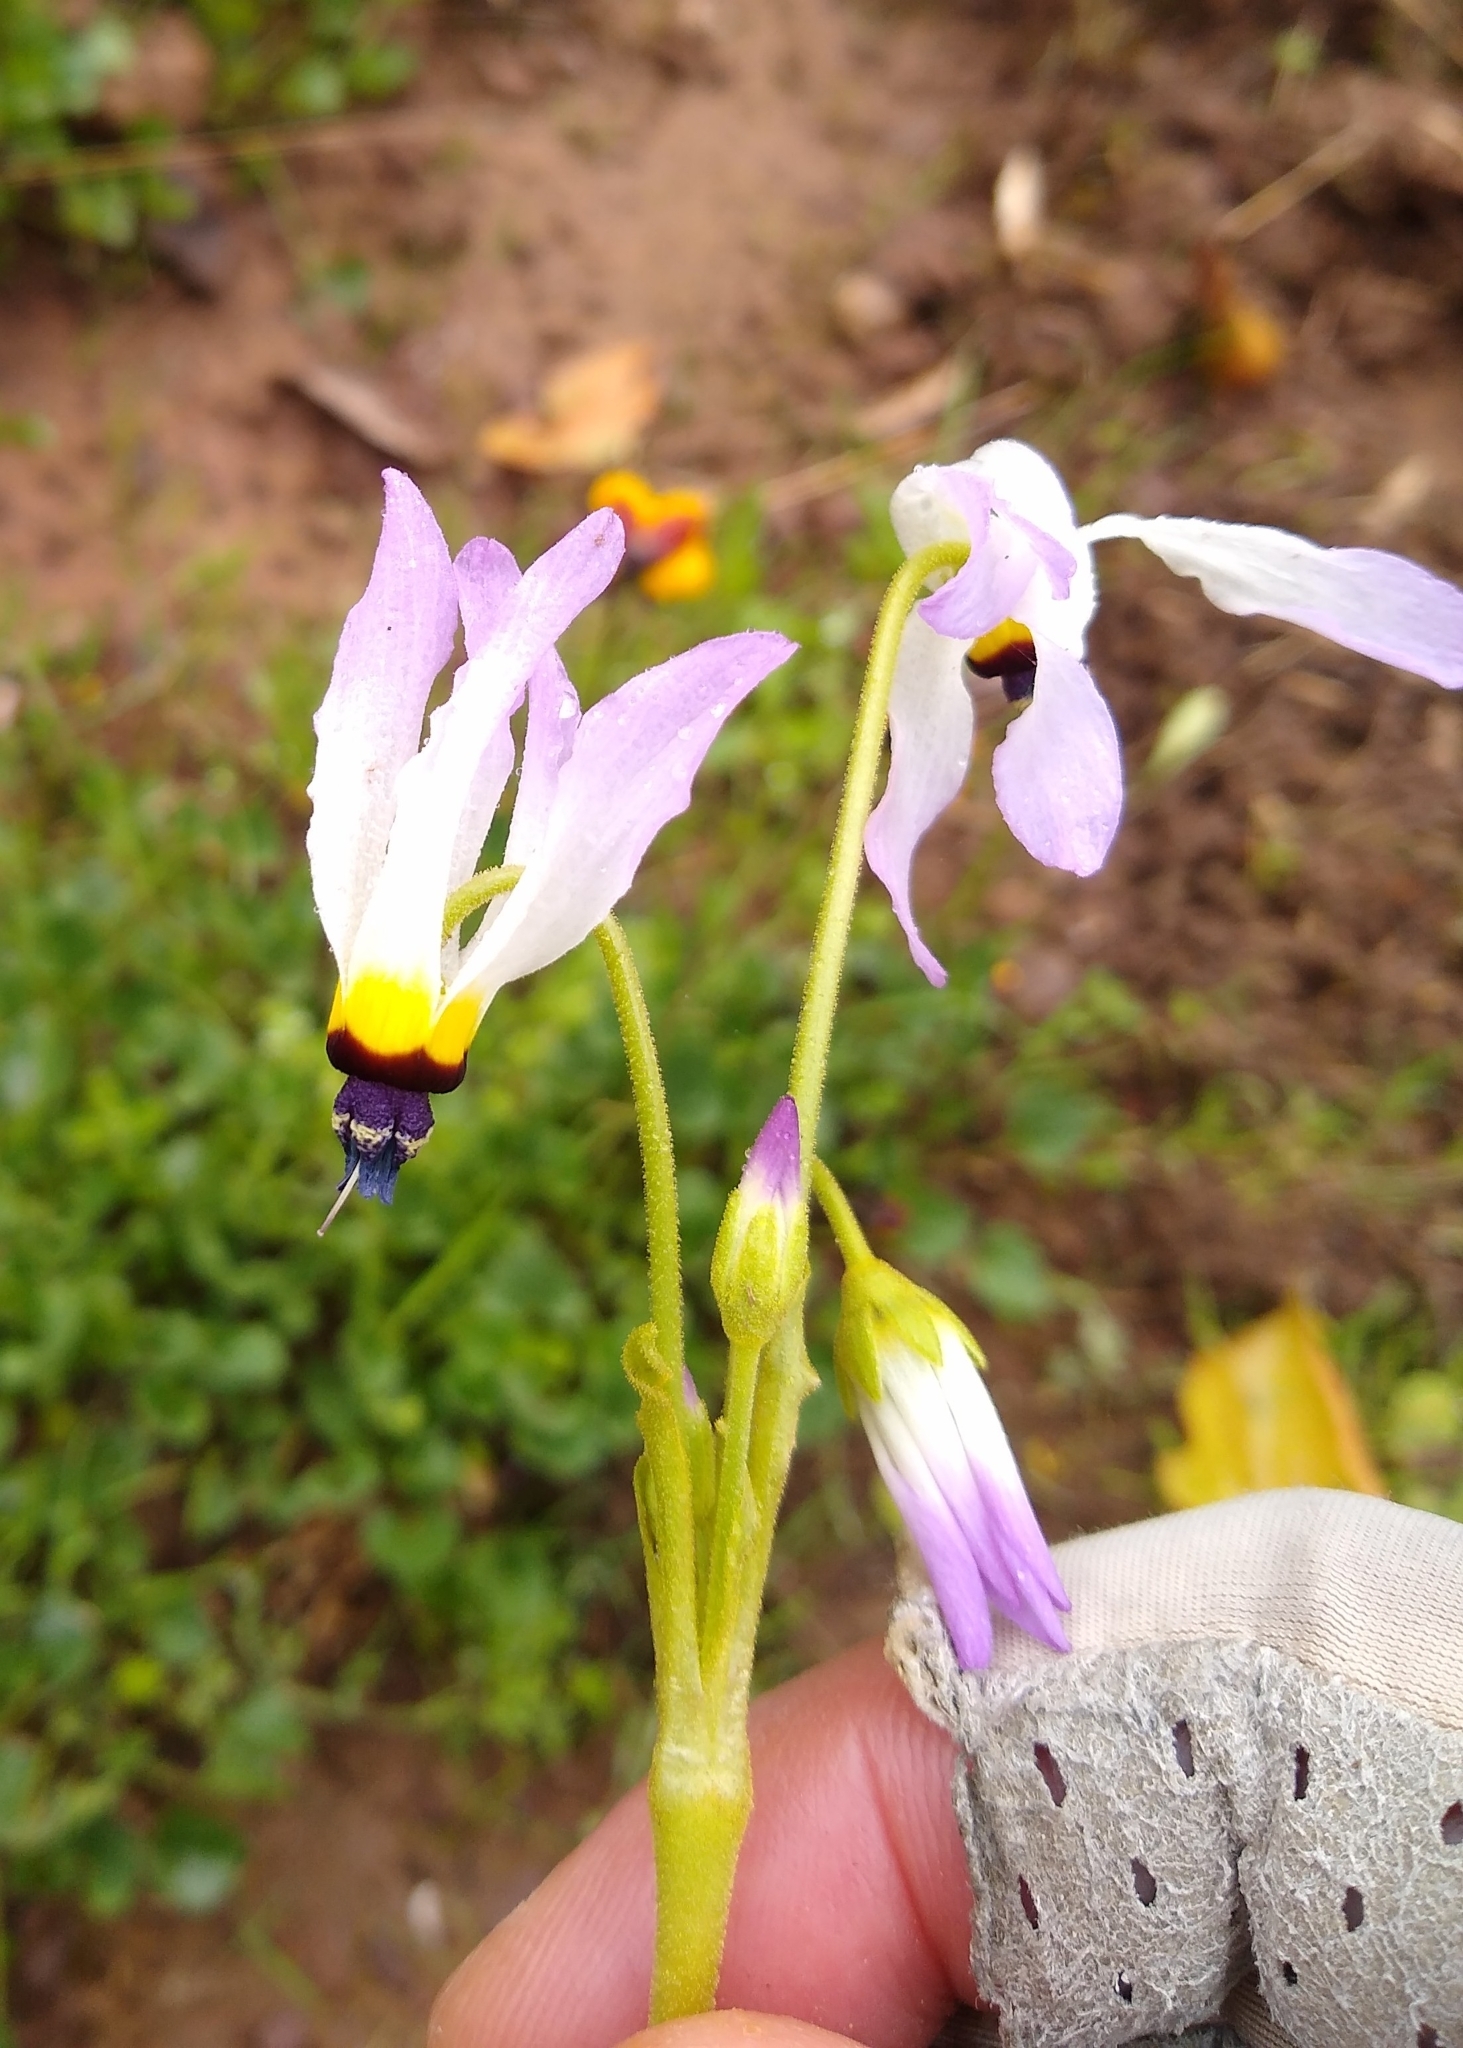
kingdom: Plantae
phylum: Tracheophyta
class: Magnoliopsida
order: Ericales
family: Primulaceae
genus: Dodecatheon
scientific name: Dodecatheon clevelandii
